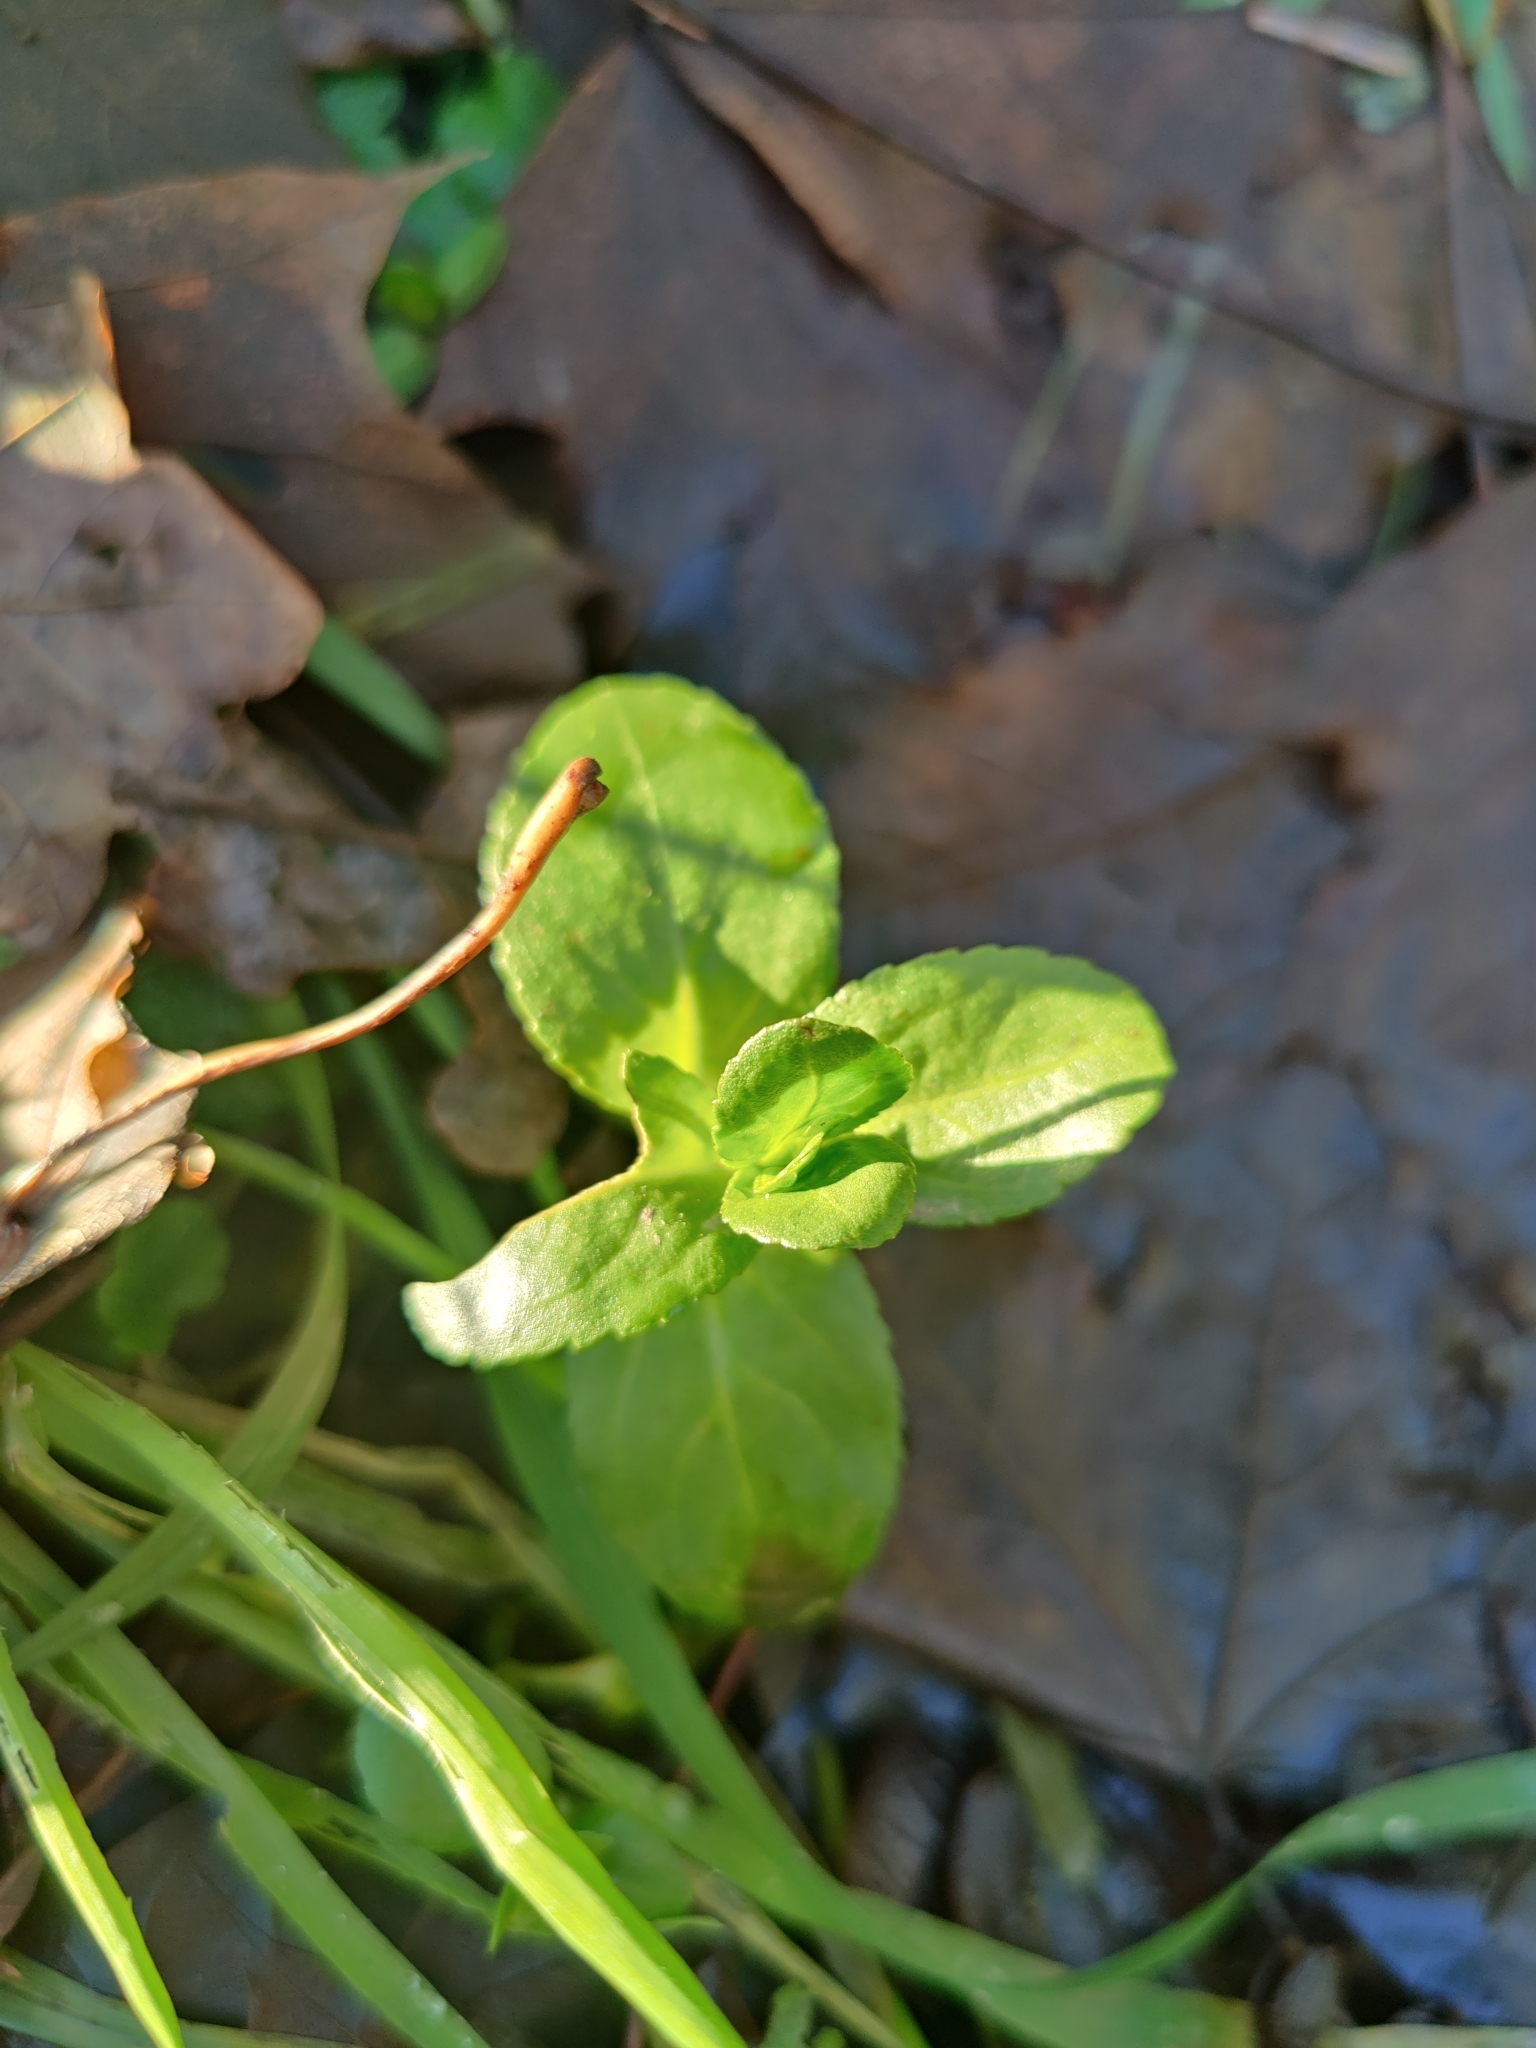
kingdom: Plantae
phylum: Tracheophyta
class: Magnoliopsida
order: Lamiales
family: Plantaginaceae
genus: Veronica
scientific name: Veronica beccabunga
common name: Brooklime
